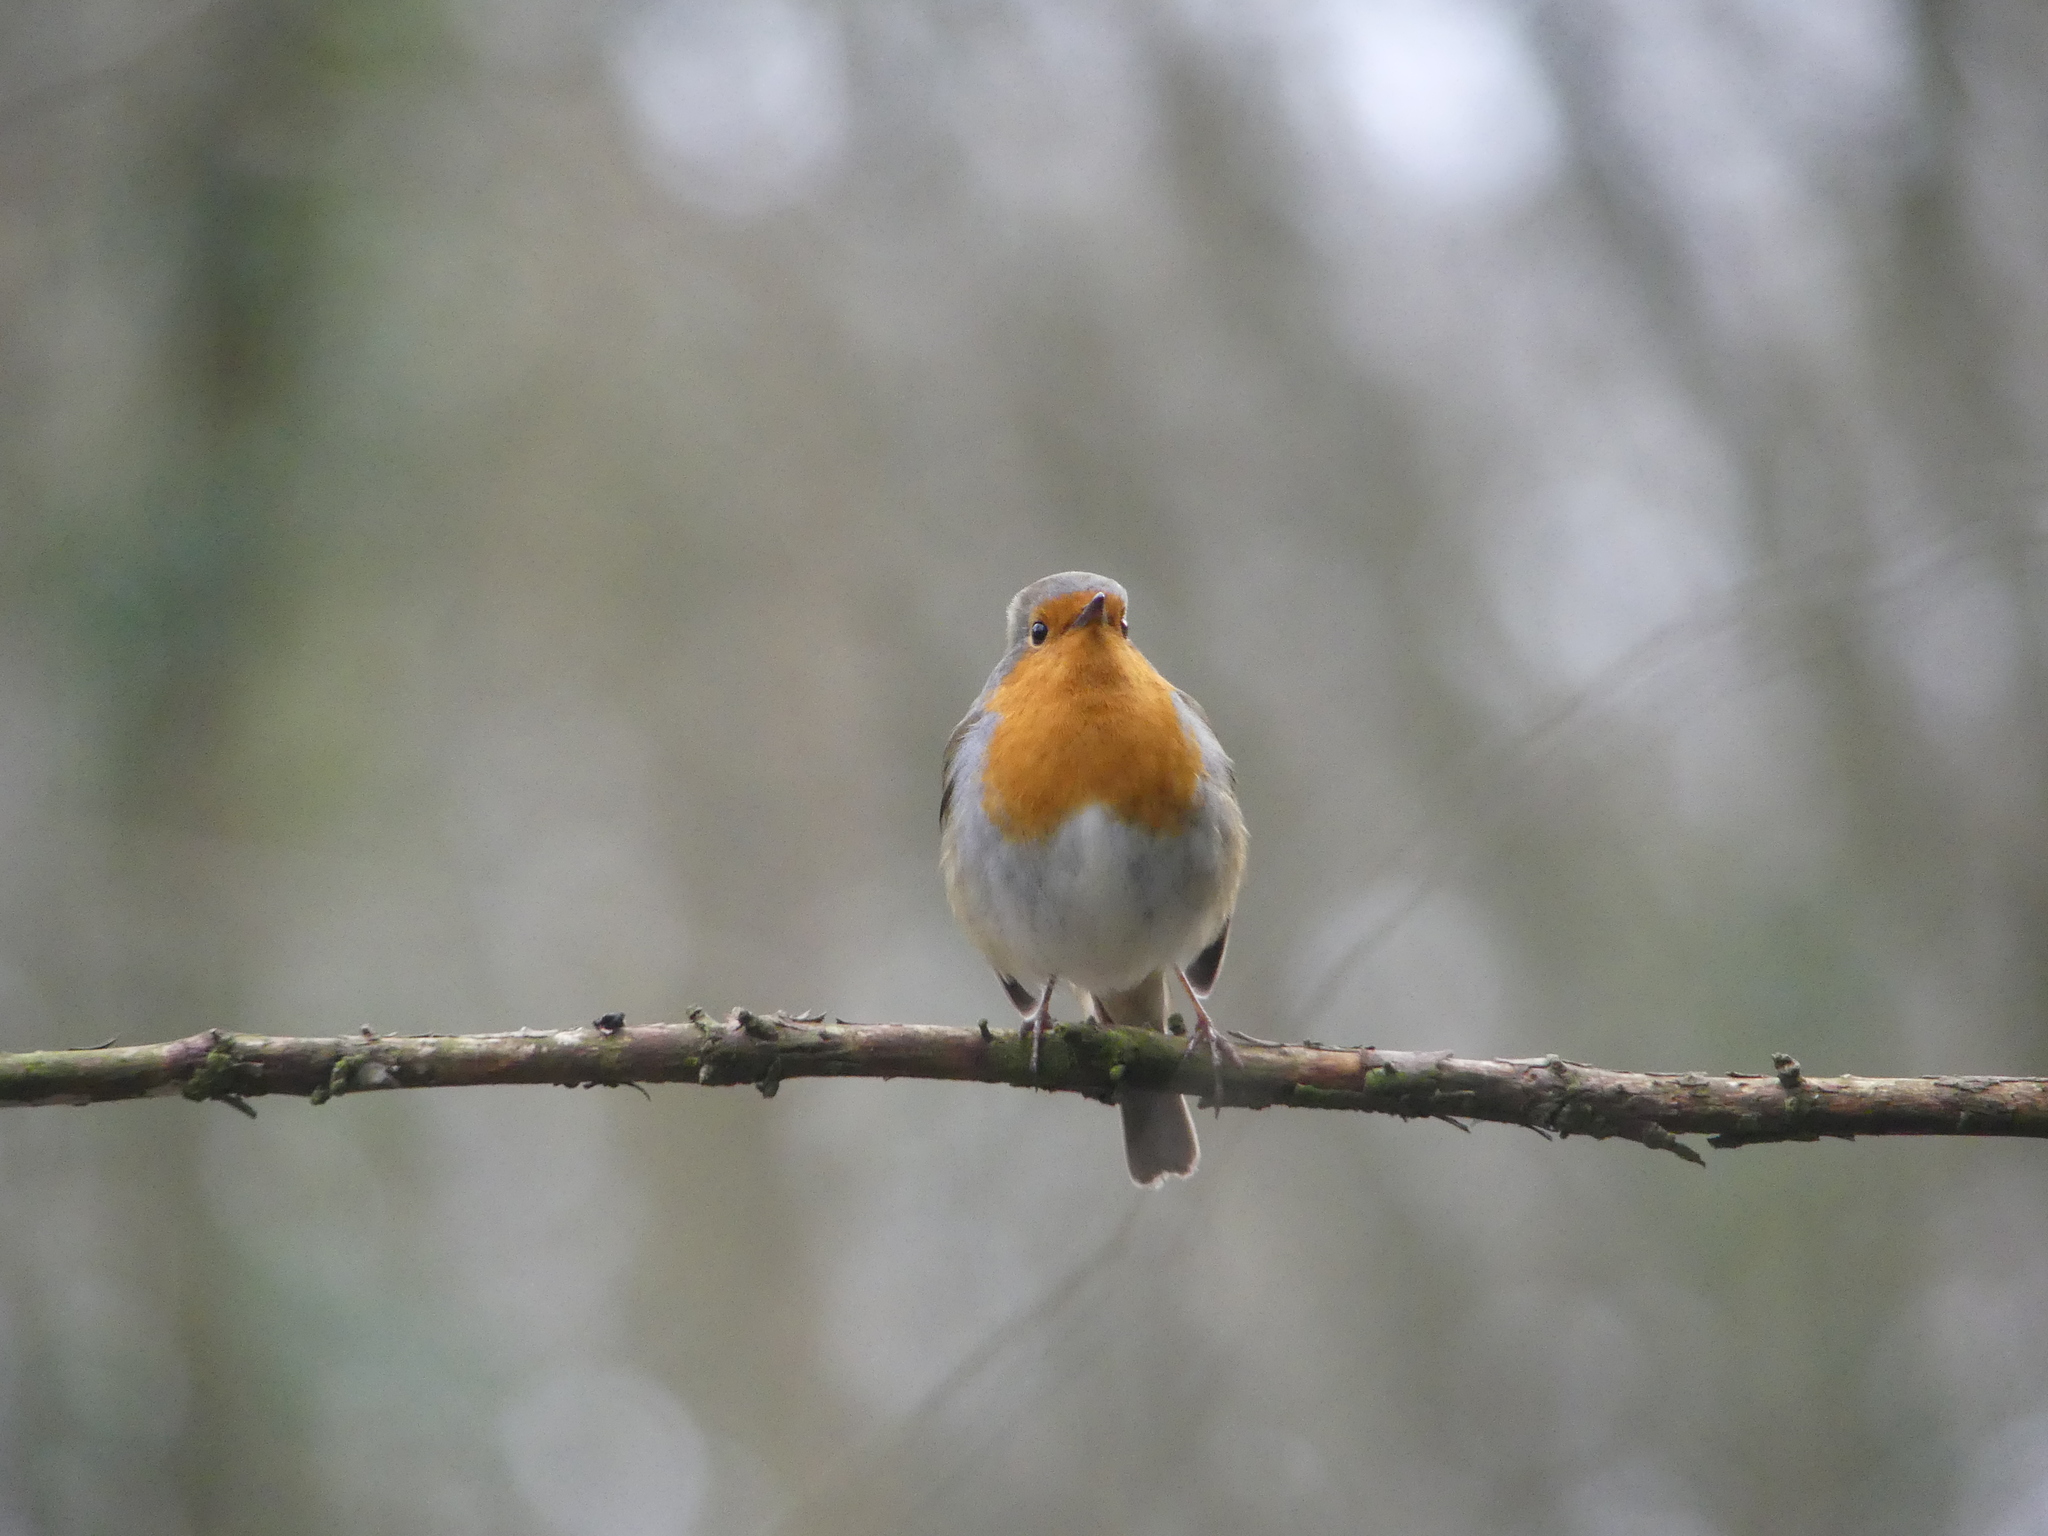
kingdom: Animalia
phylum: Chordata
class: Aves
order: Passeriformes
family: Muscicapidae
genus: Erithacus
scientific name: Erithacus rubecula
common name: European robin
